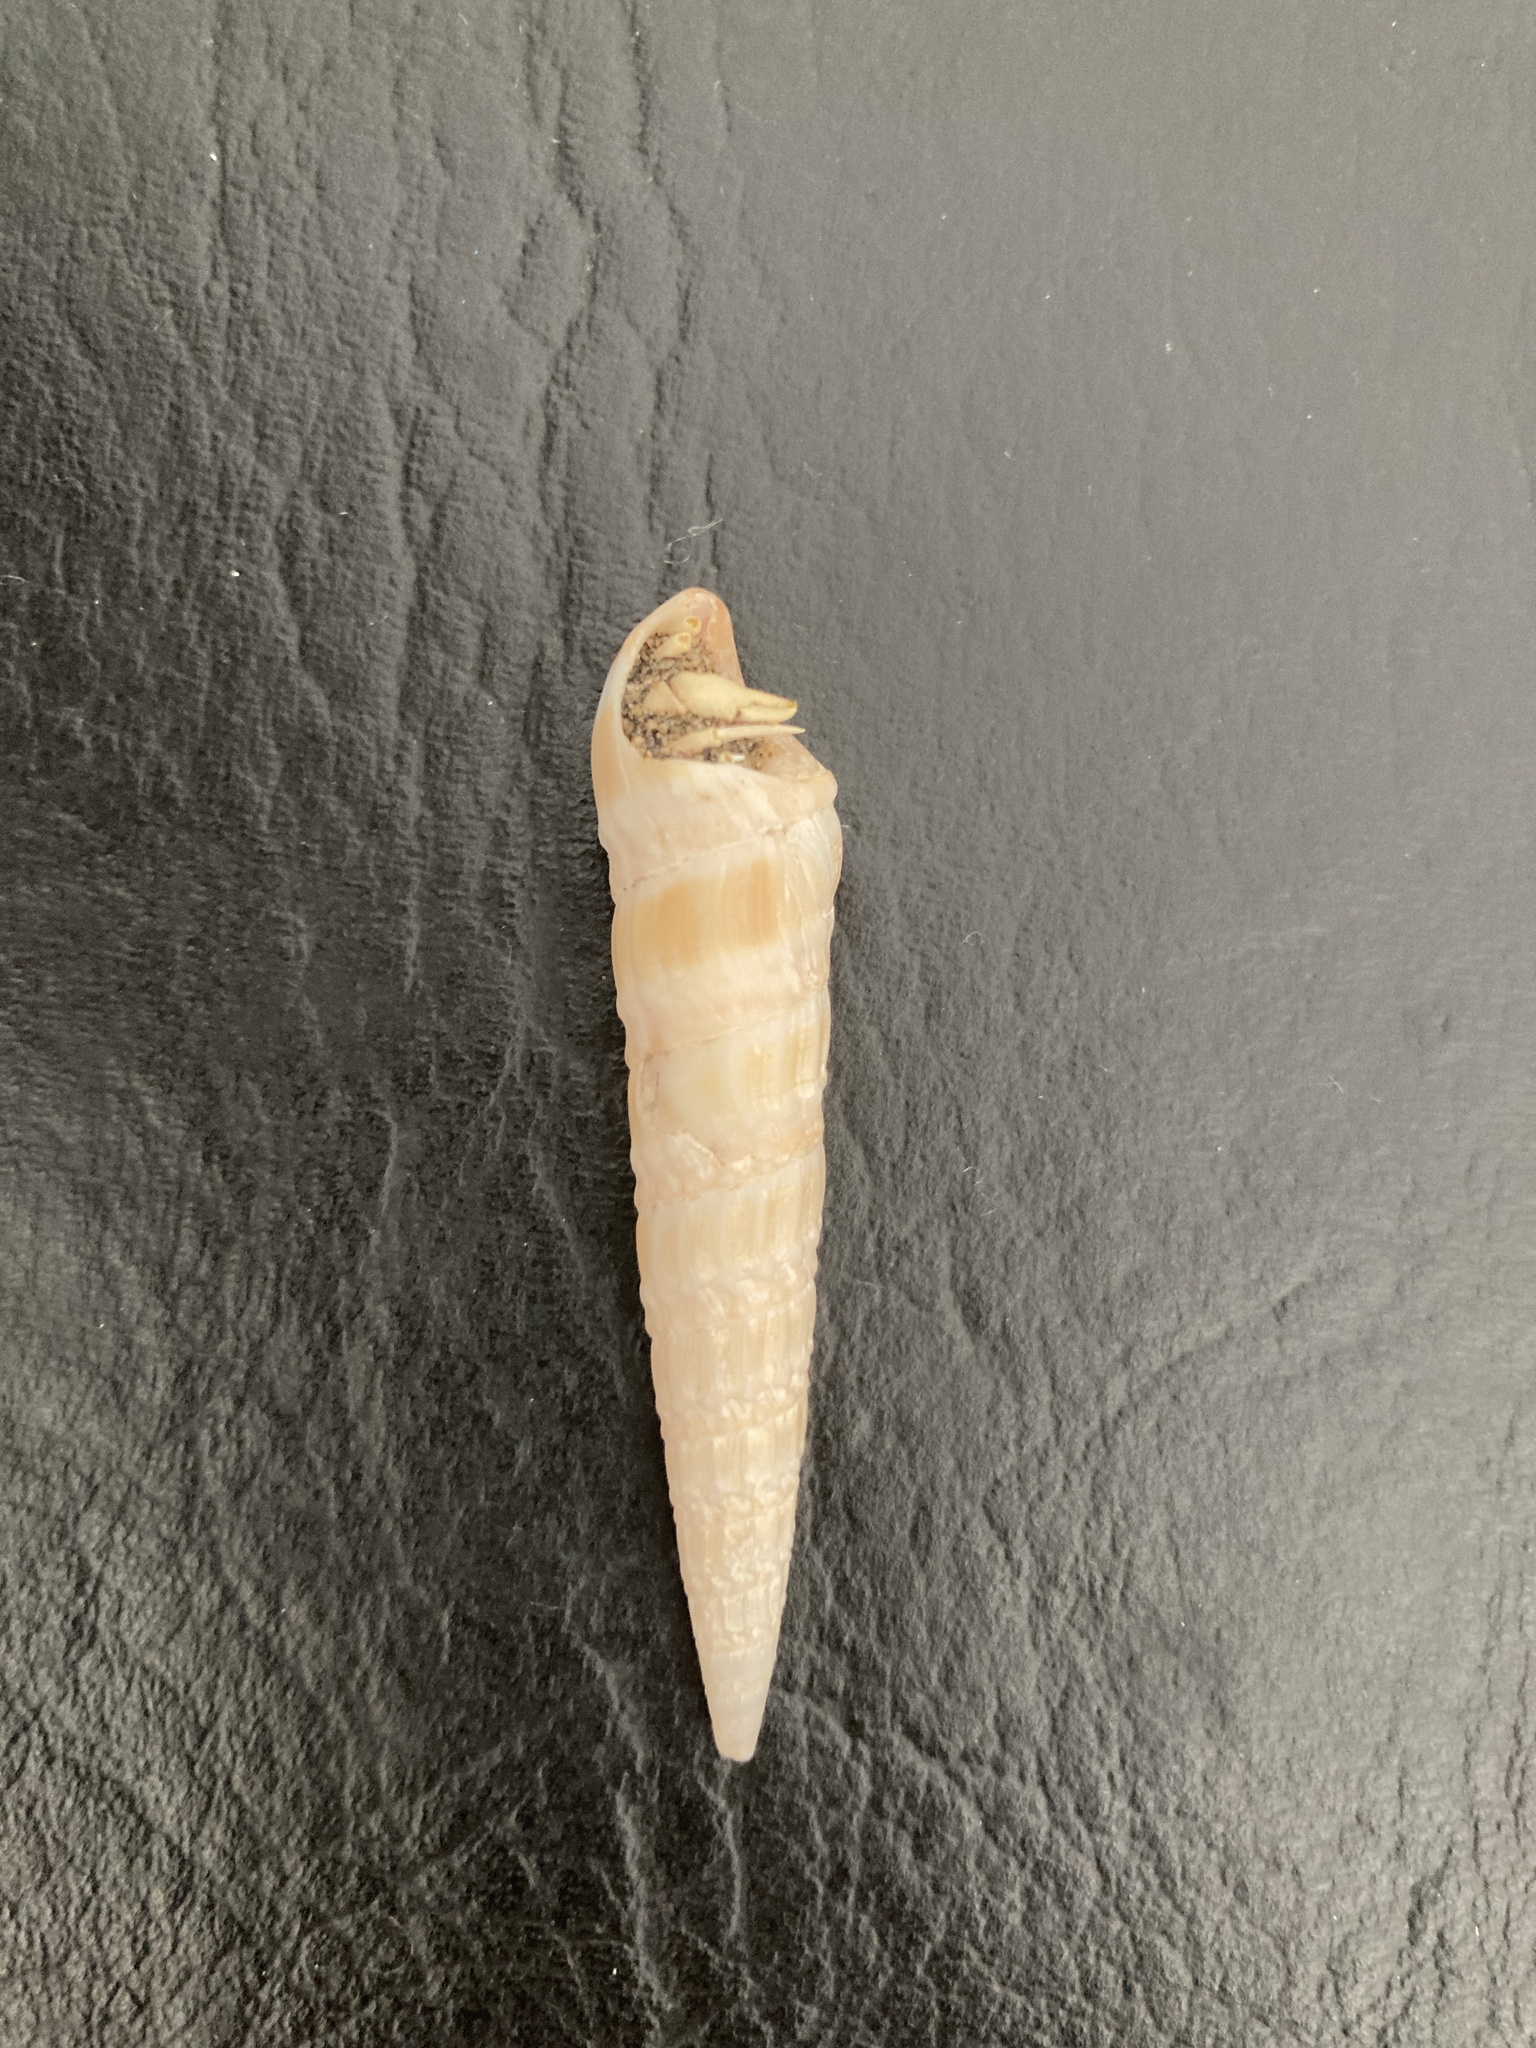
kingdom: Animalia
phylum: Mollusca
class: Gastropoda
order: Neogastropoda
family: Terebridae
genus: Duplicaria
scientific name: Duplicaria gemmulata
